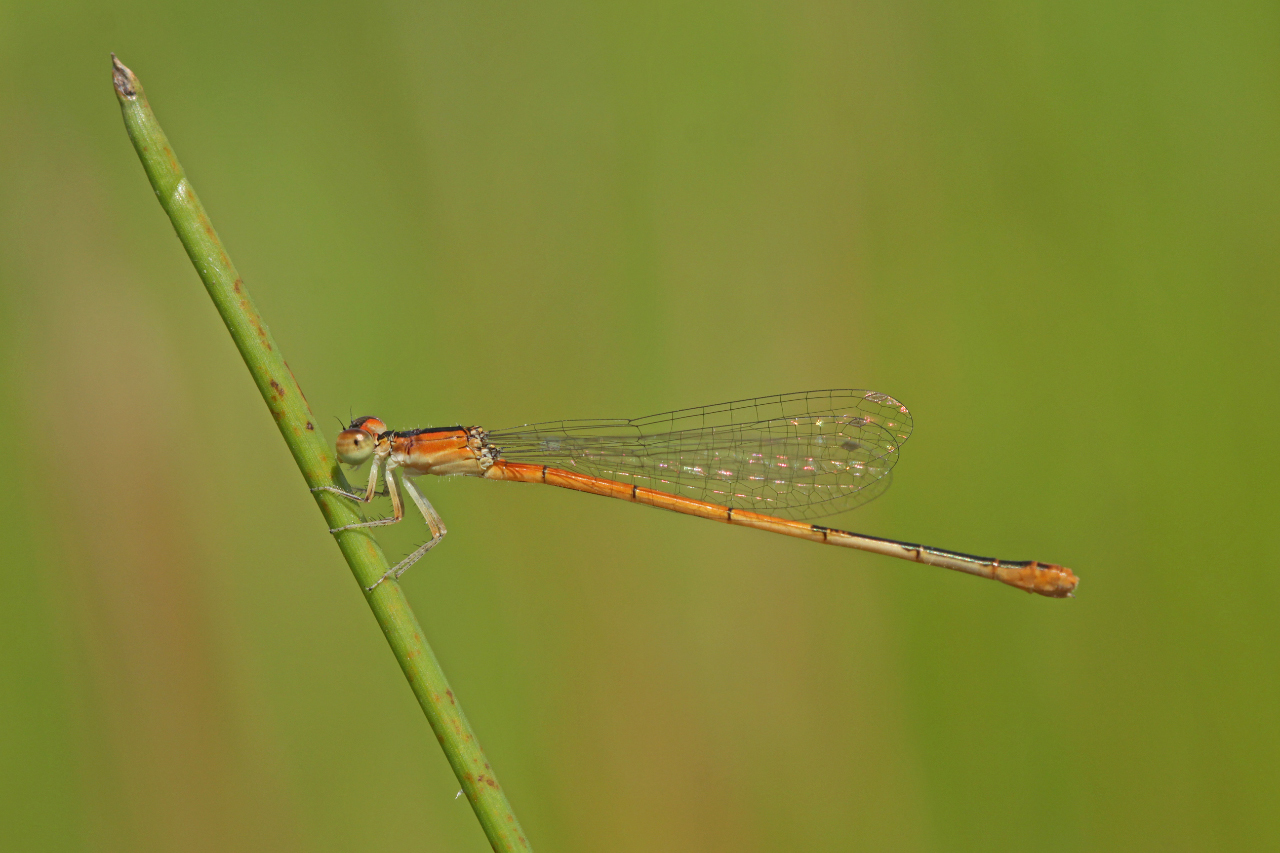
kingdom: Animalia
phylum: Arthropoda
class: Insecta
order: Odonata
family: Coenagrionidae
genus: Ischnura
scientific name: Ischnura hastata
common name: Citrine forktail
